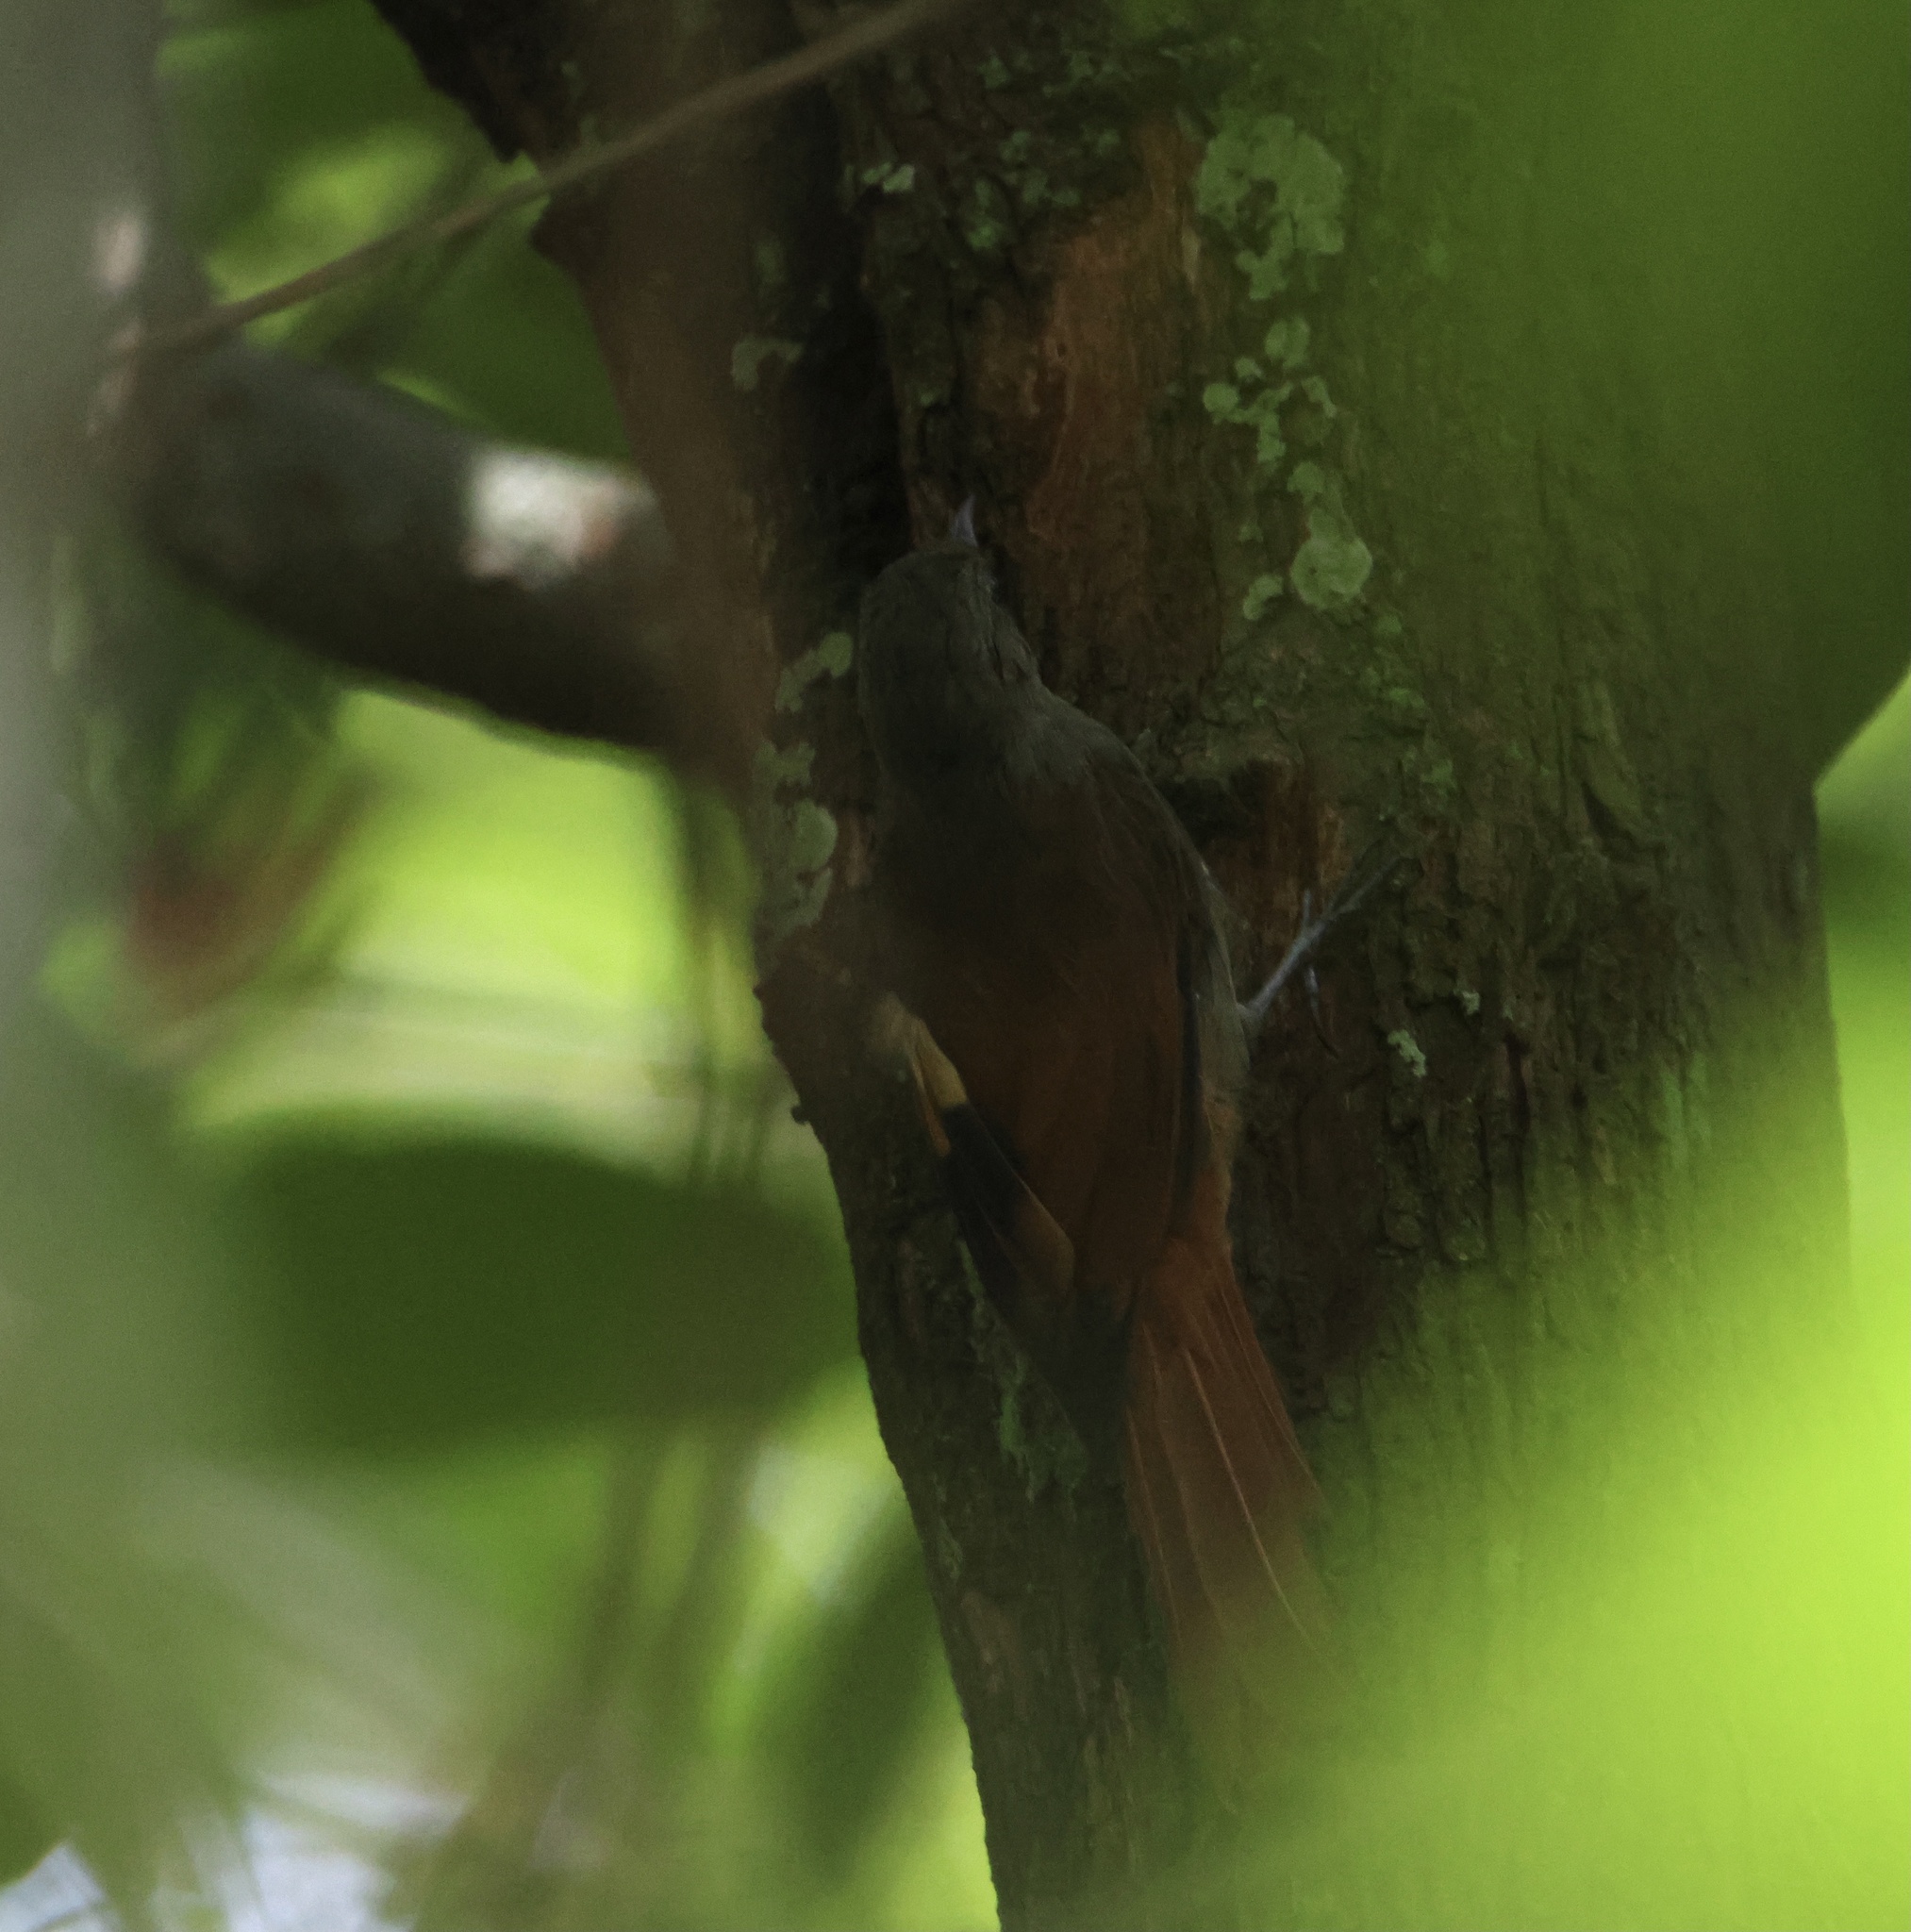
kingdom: Animalia
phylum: Chordata
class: Aves
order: Passeriformes
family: Furnariidae
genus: Sittasomus
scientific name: Sittasomus griseicapillus
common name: Olivaceous woodcreeper
